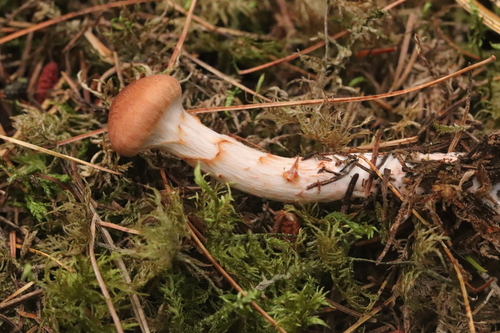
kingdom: Fungi
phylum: Basidiomycota
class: Agaricomycetes
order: Agaricales
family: Cortinariaceae
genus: Cortinarius
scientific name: Cortinarius armillatus
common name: Red banded webcap
